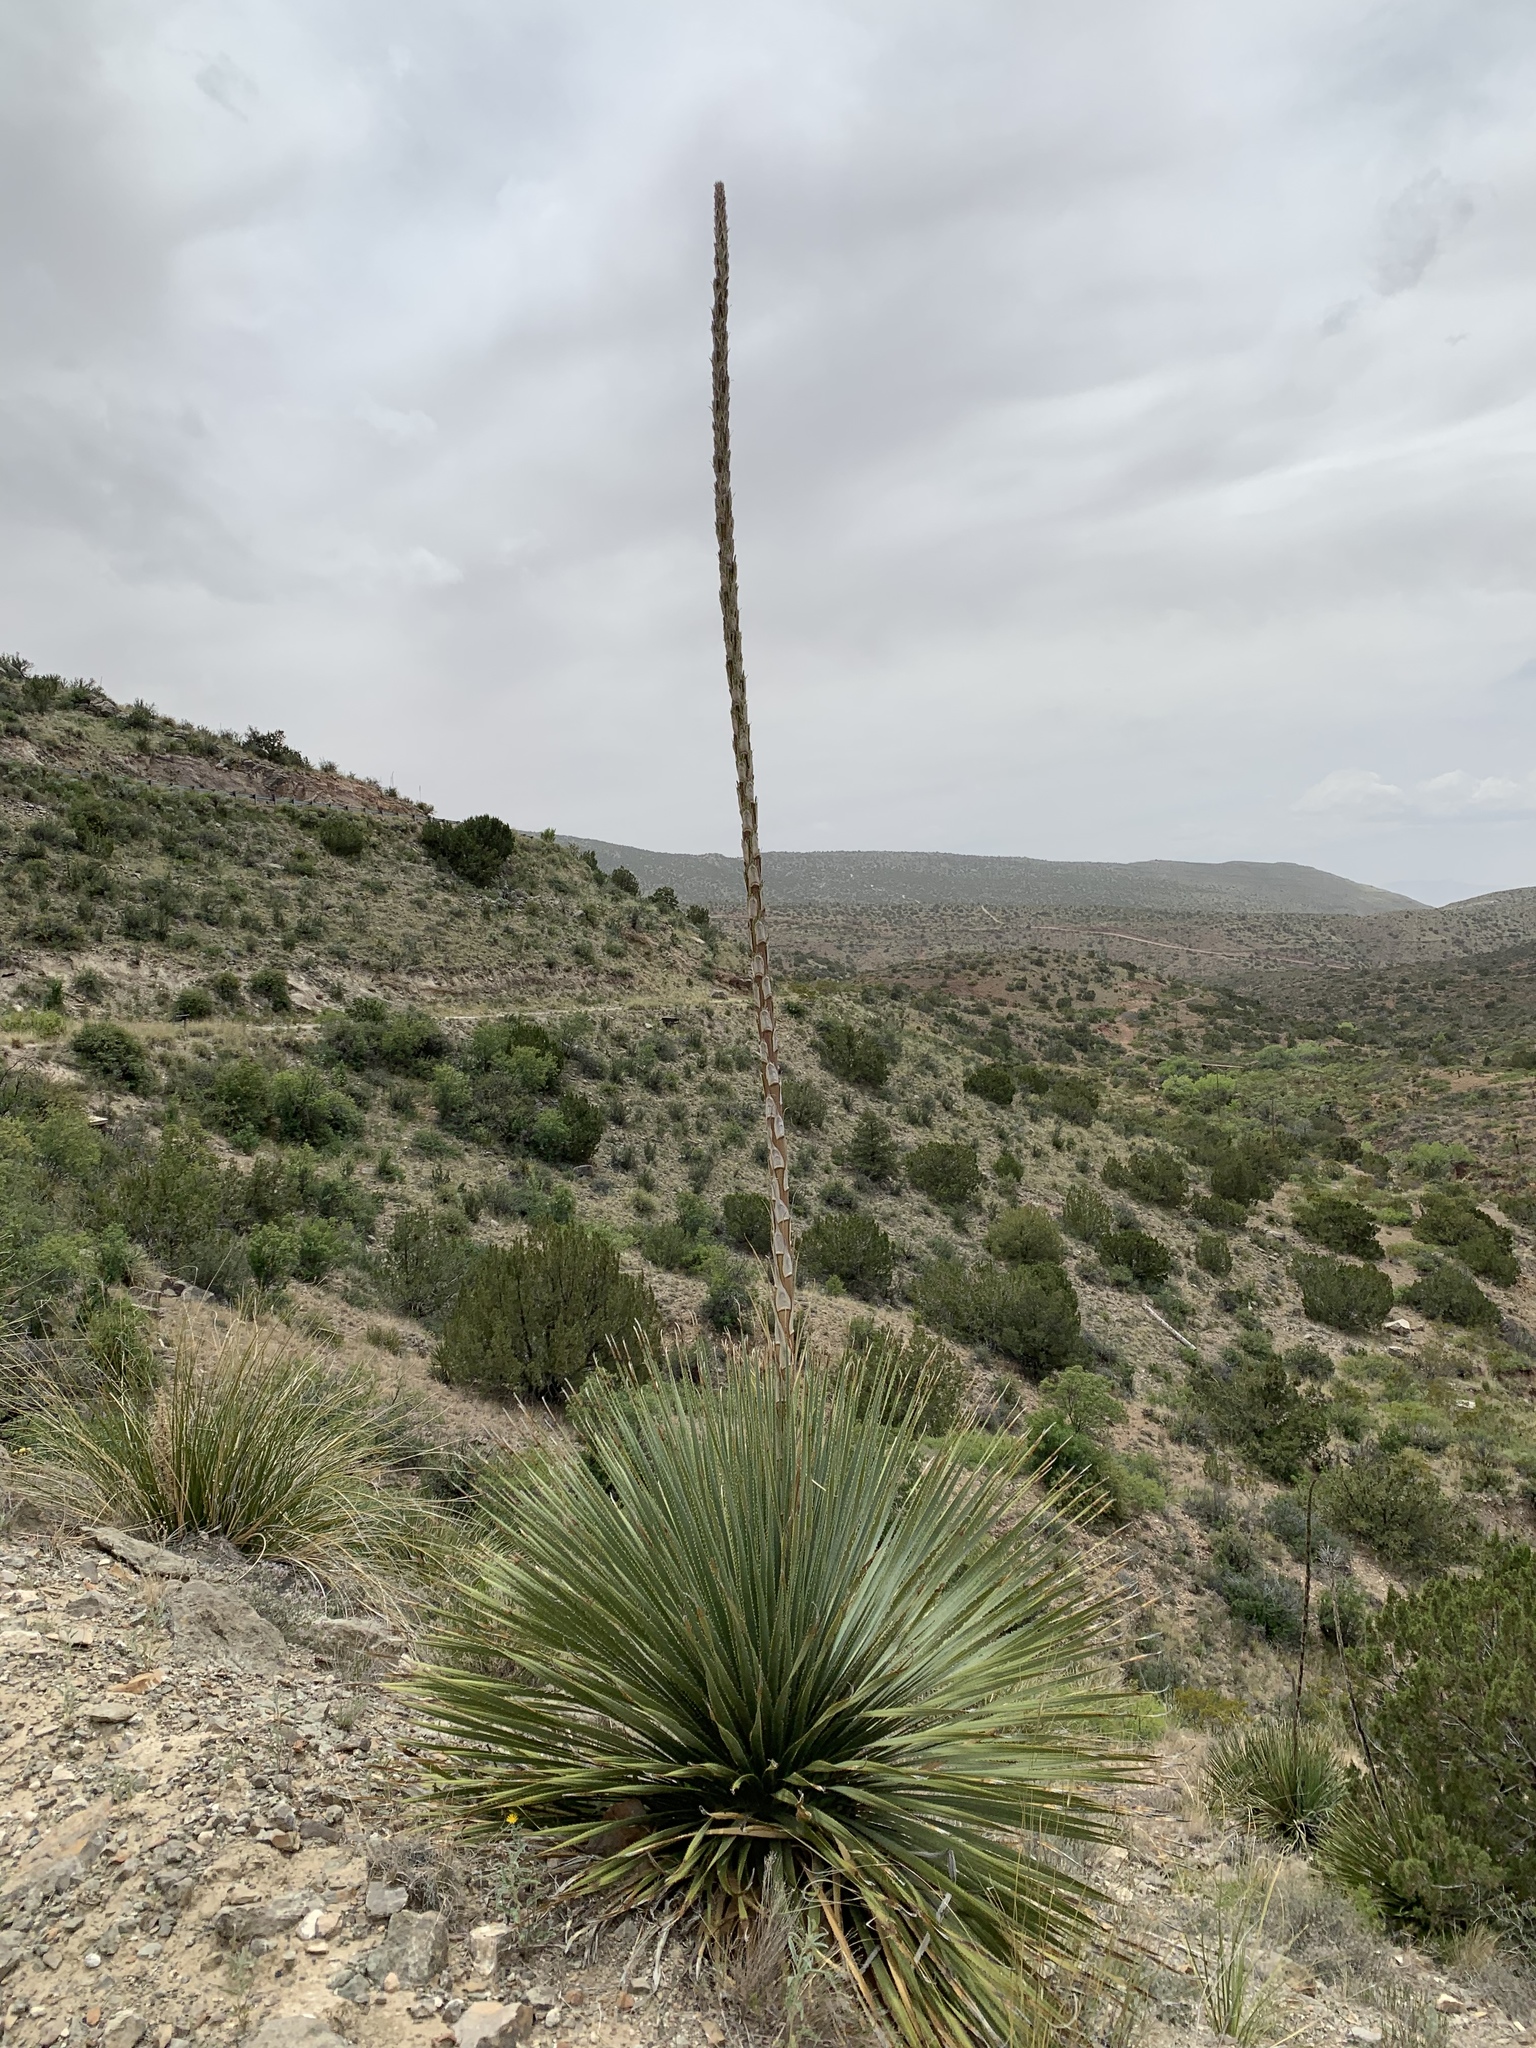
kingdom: Plantae
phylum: Tracheophyta
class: Liliopsida
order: Asparagales
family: Asparagaceae
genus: Dasylirion
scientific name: Dasylirion wheeleri
